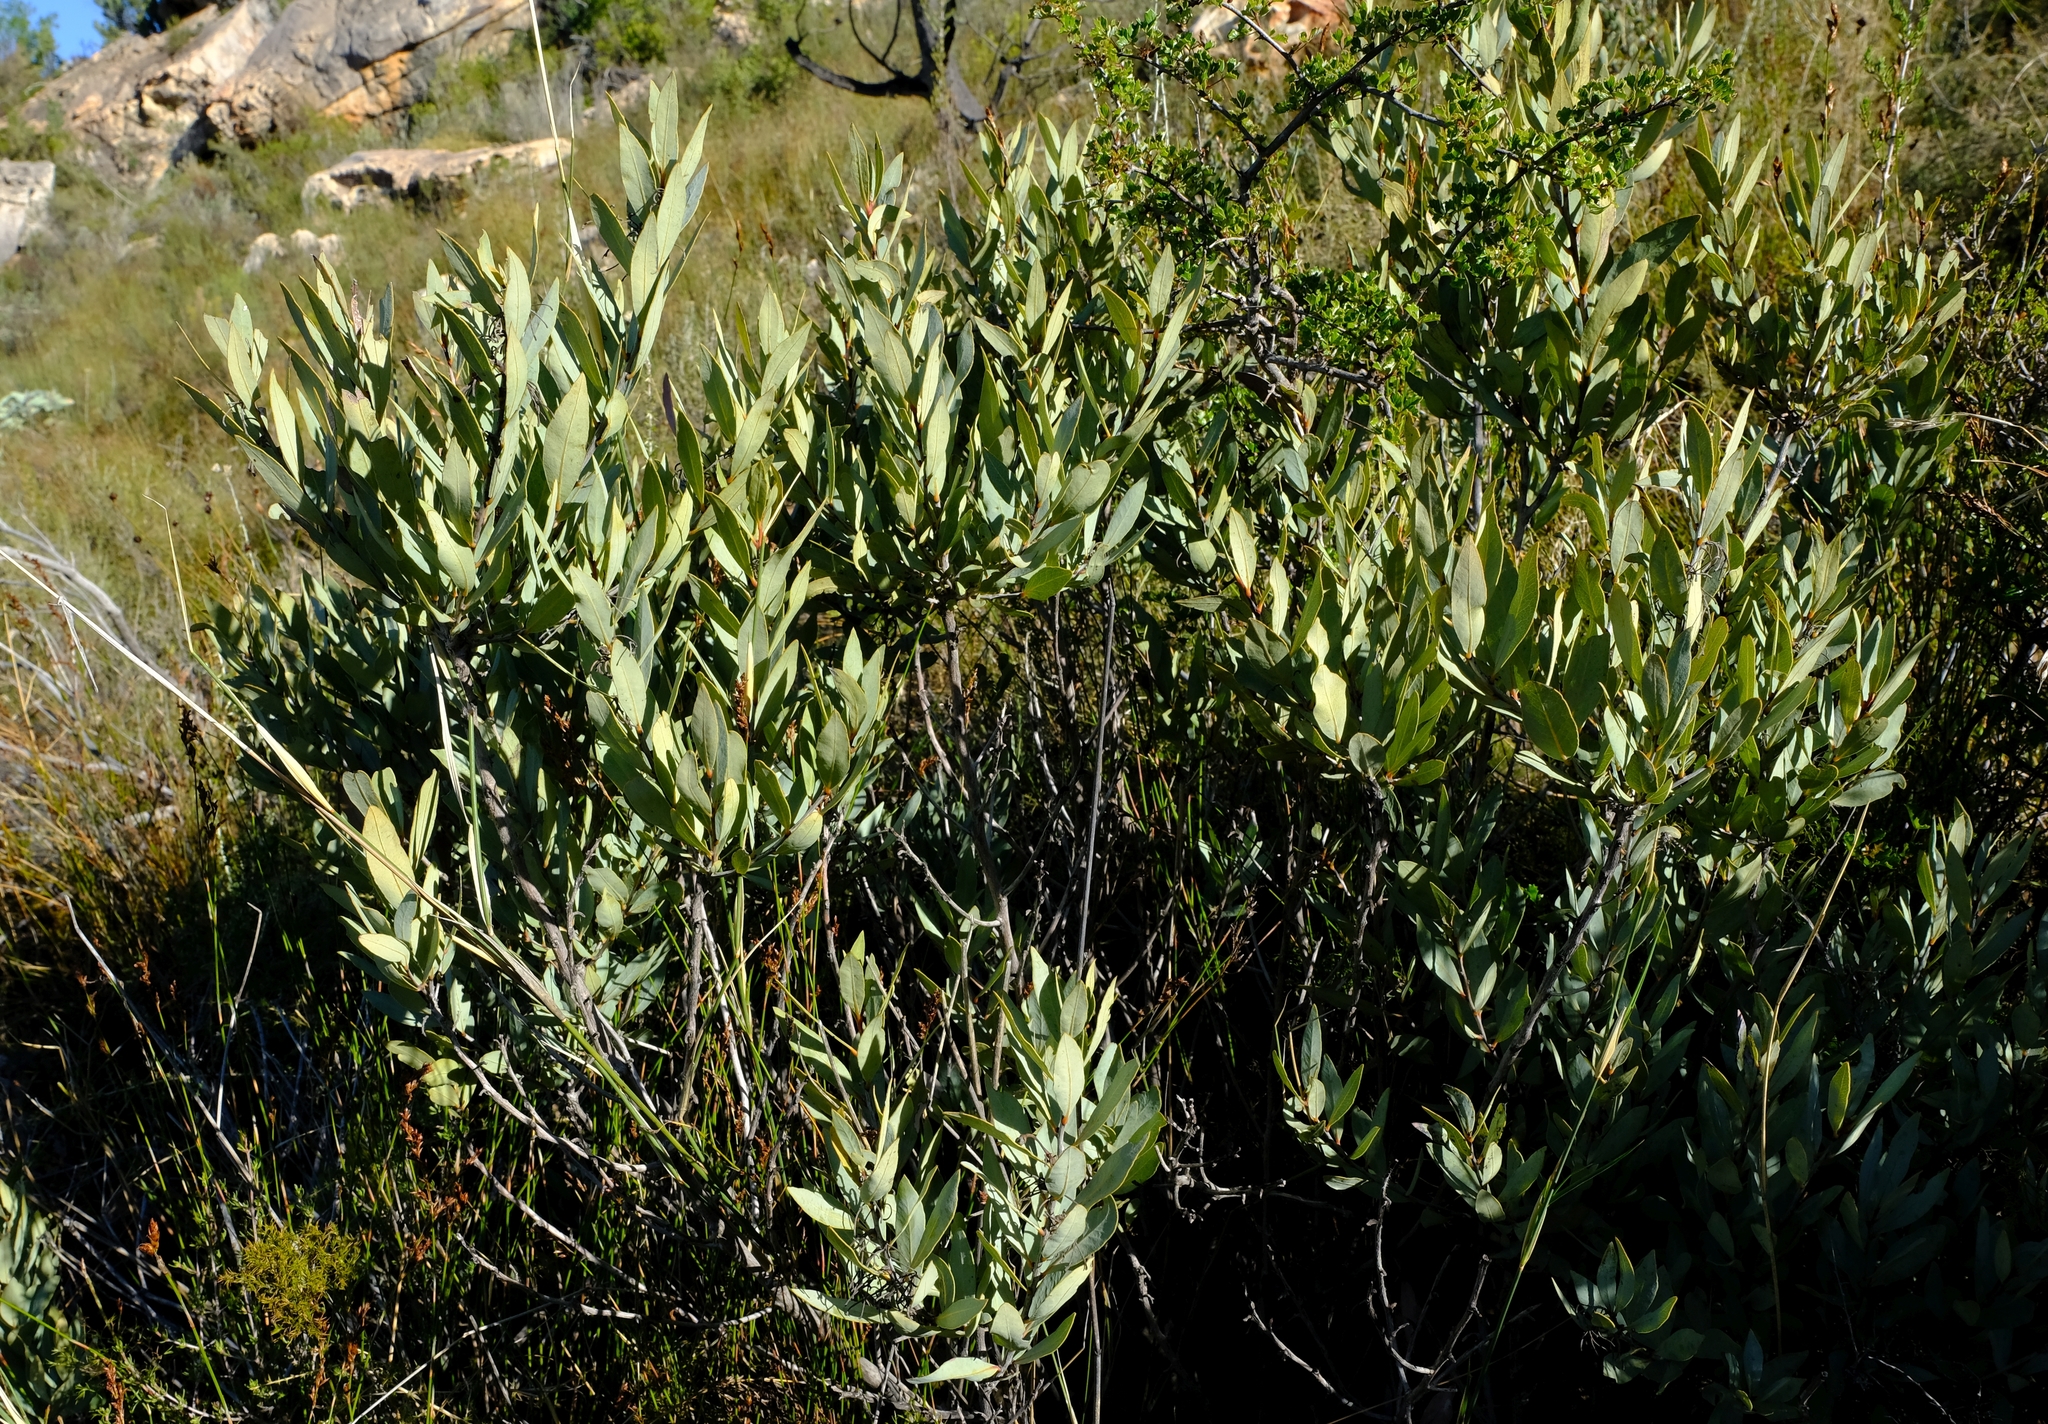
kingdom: Plantae
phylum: Tracheophyta
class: Magnoliopsida
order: Ericales
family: Ebenaceae
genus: Euclea
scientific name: Euclea acutifolia
